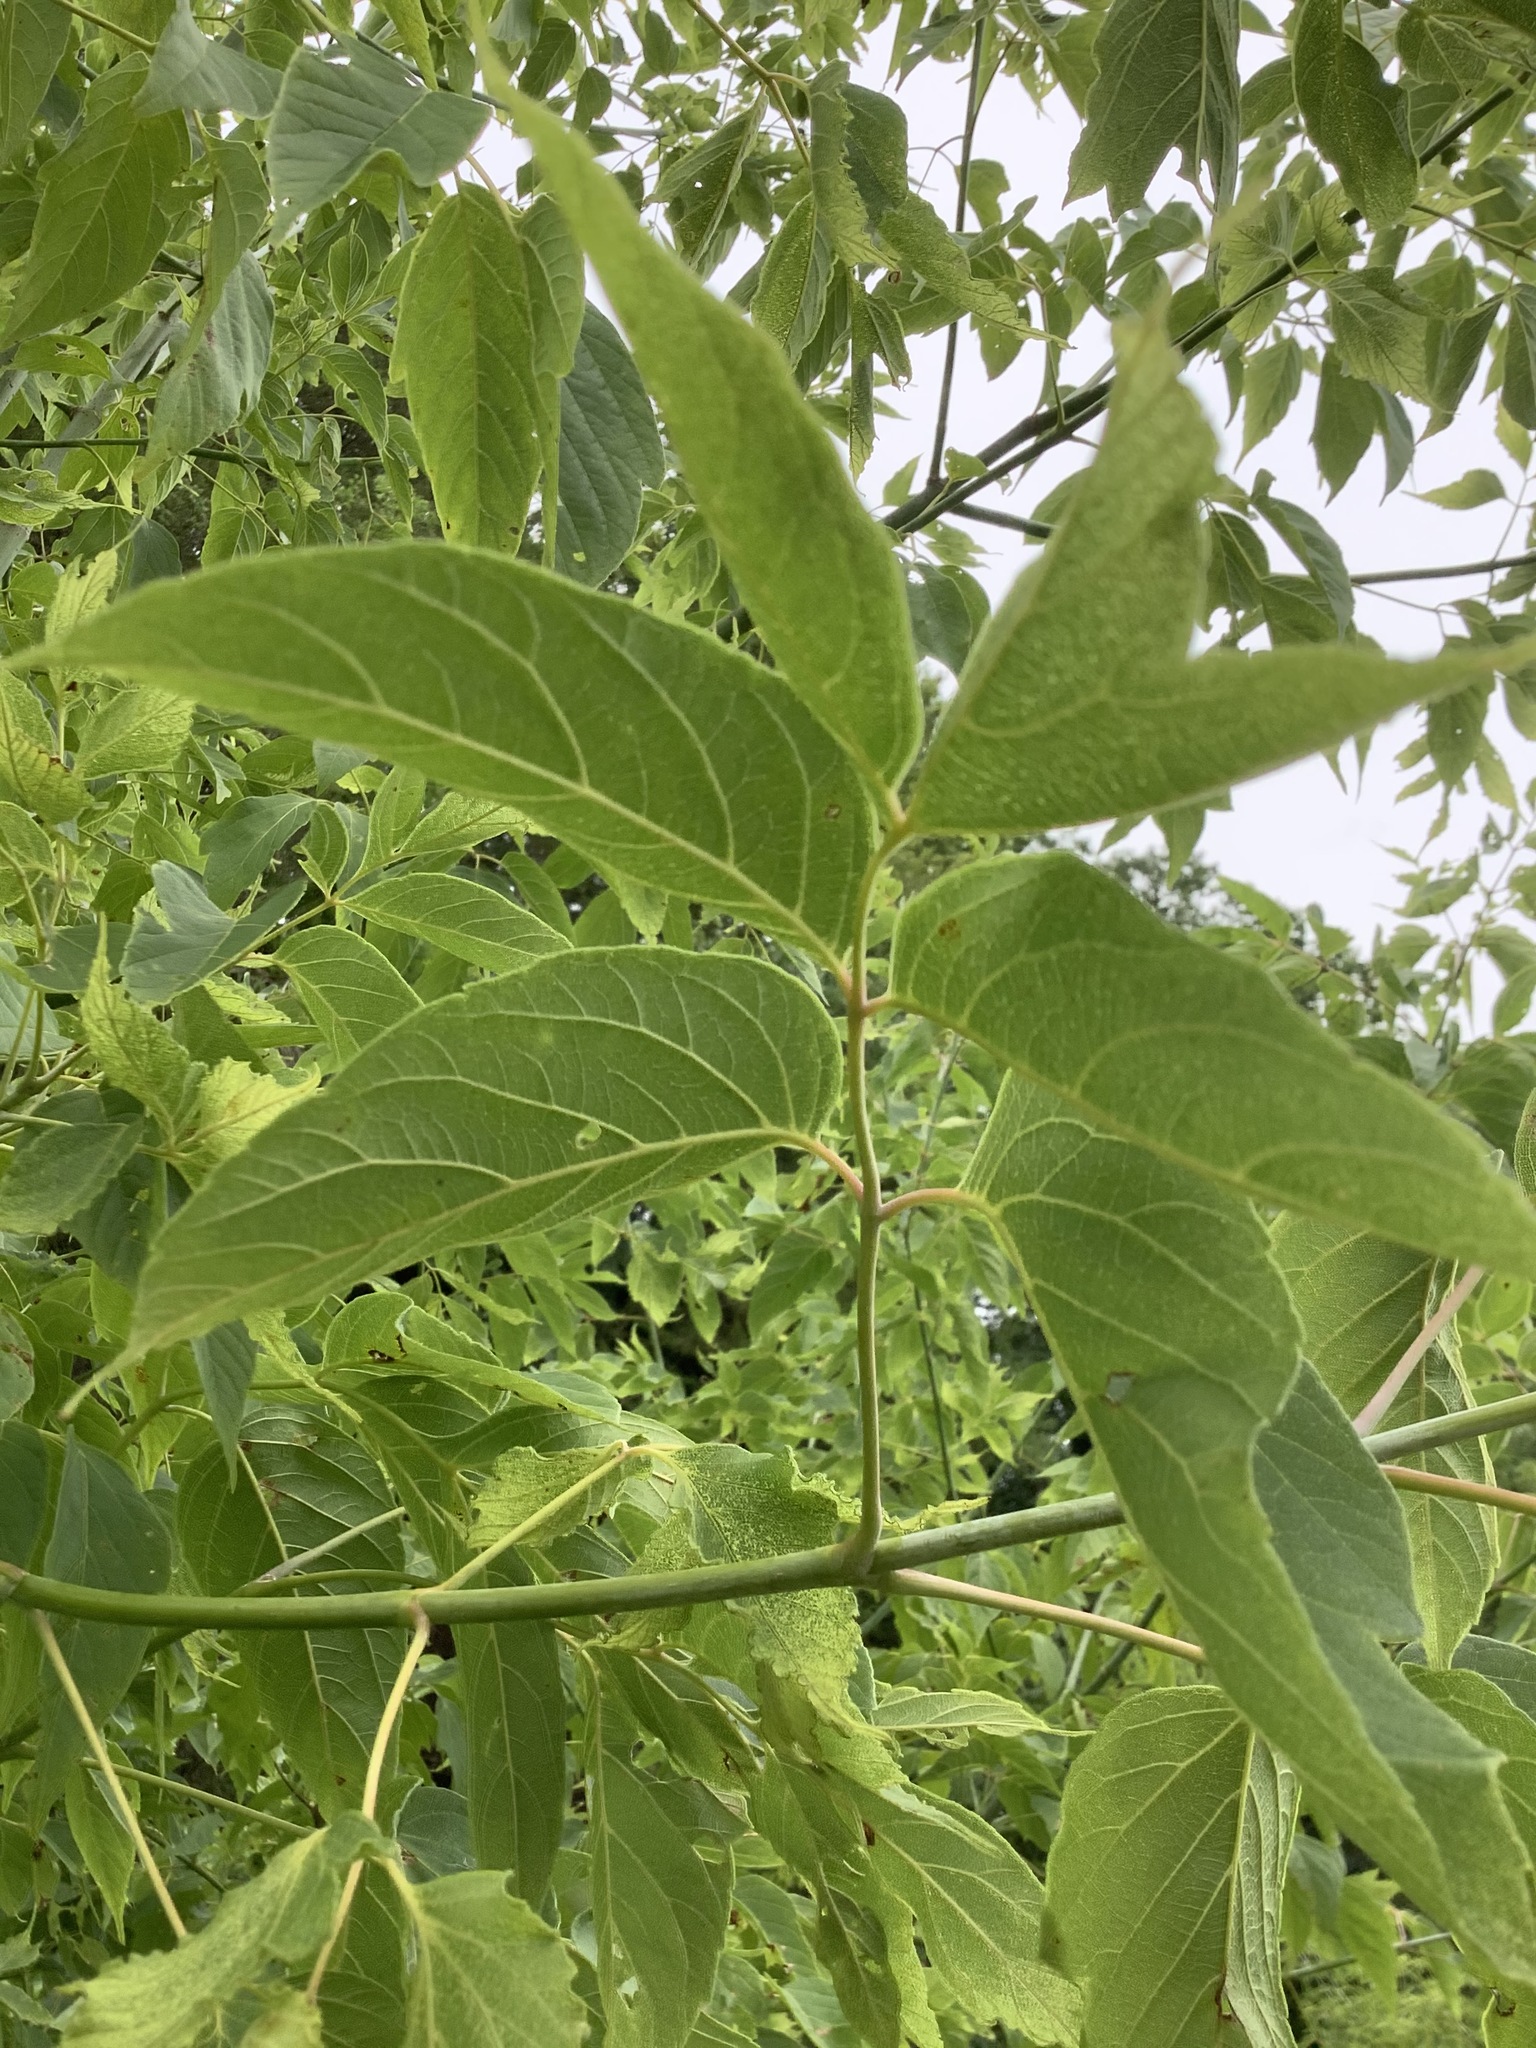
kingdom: Plantae
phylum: Tracheophyta
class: Magnoliopsida
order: Sapindales
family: Sapindaceae
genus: Acer
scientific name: Acer negundo
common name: Ashleaf maple
